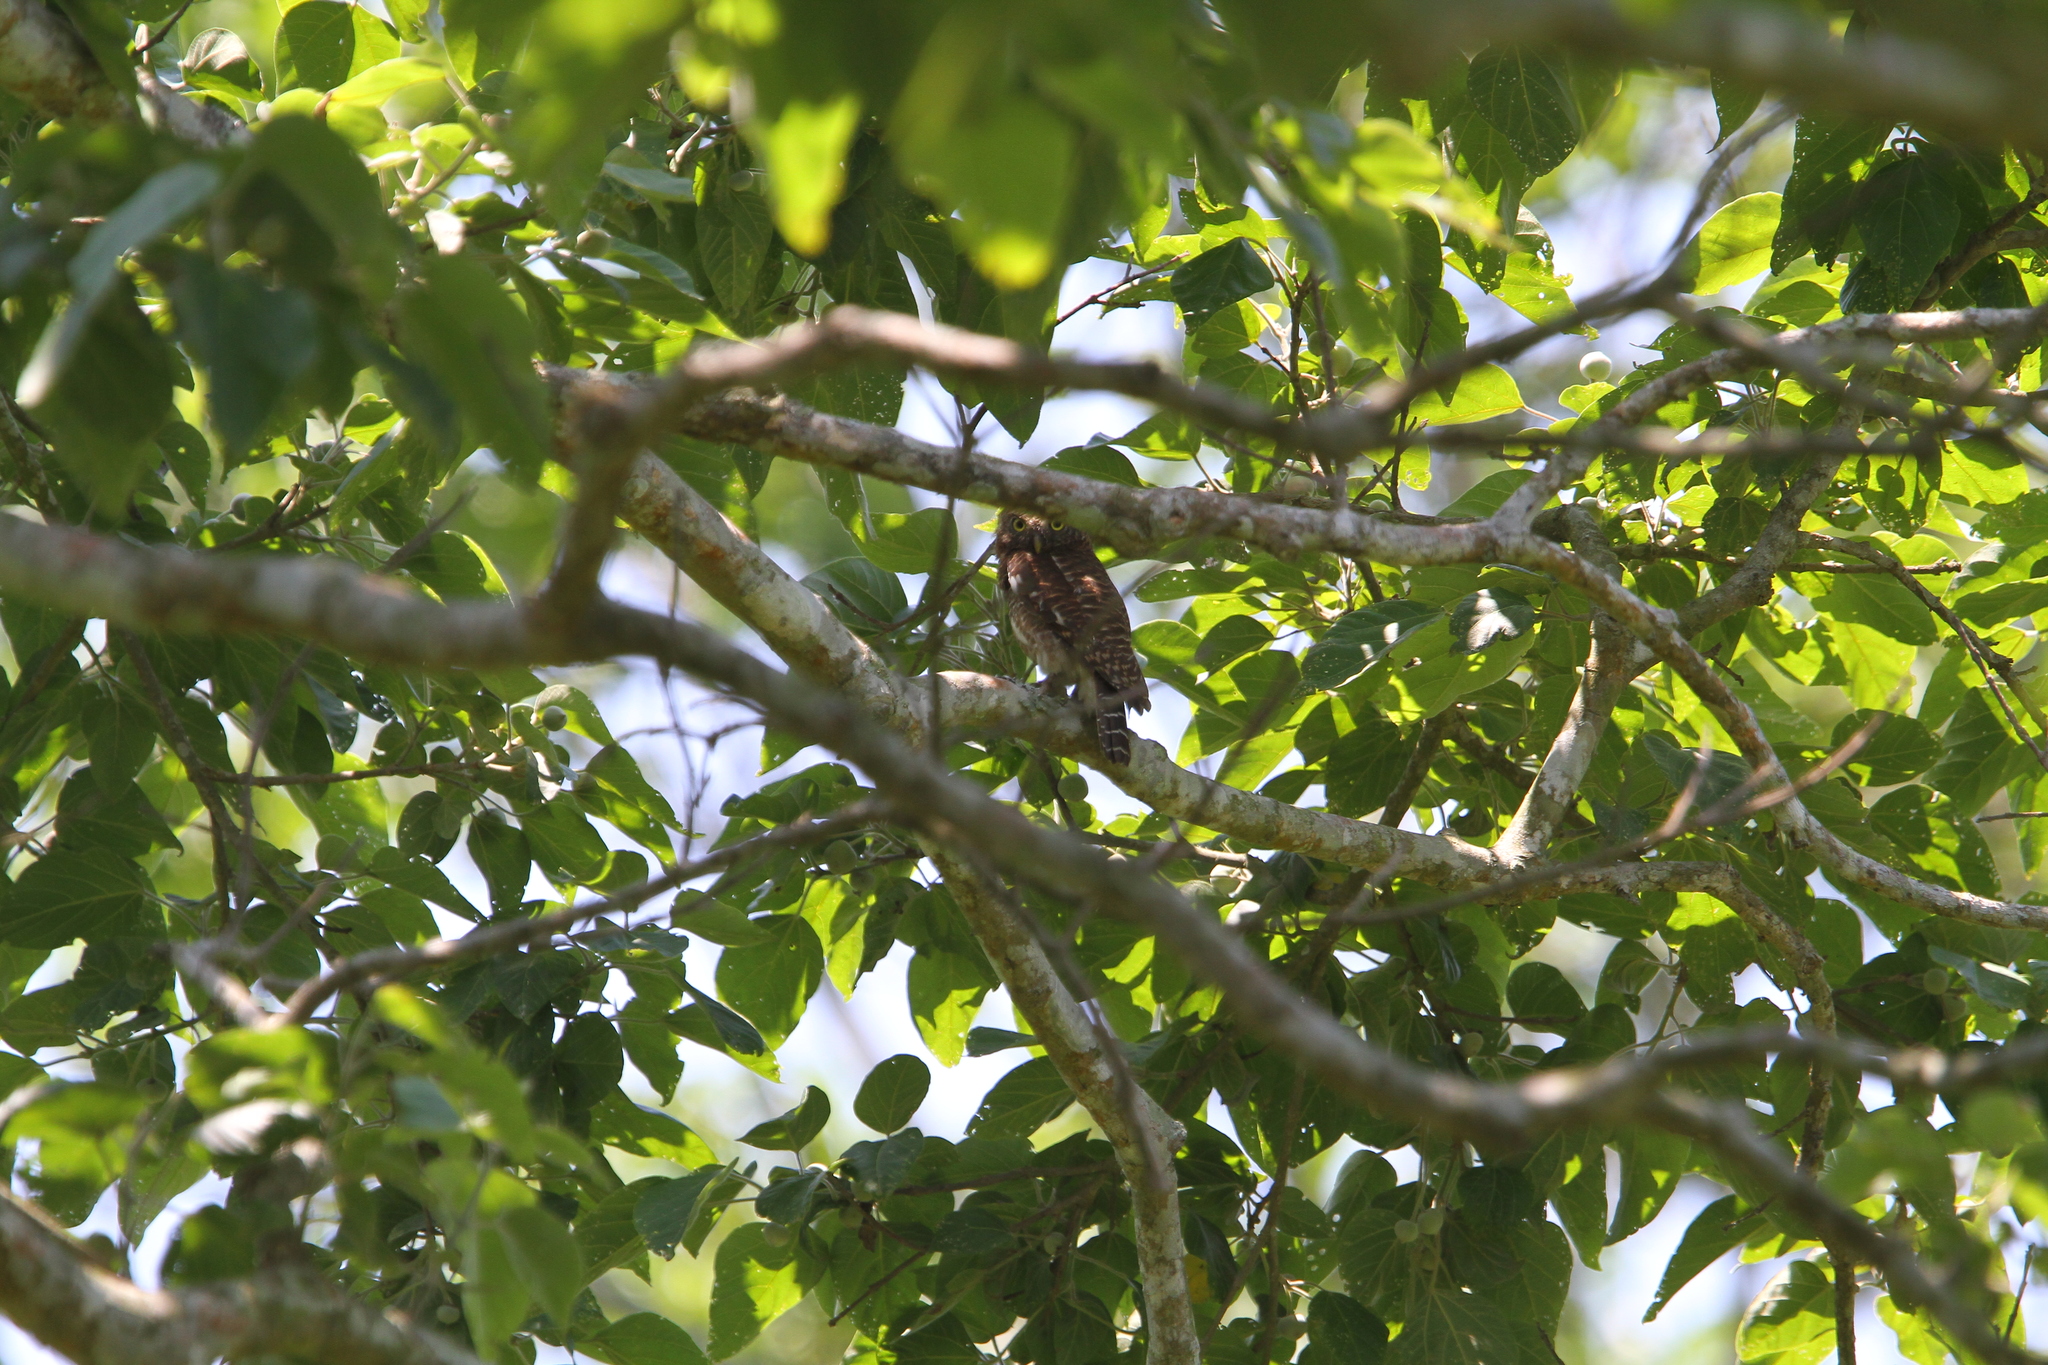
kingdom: Animalia
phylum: Chordata
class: Aves
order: Strigiformes
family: Strigidae
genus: Glaucidium
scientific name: Glaucidium cuculoides
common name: Asian barred owlet
